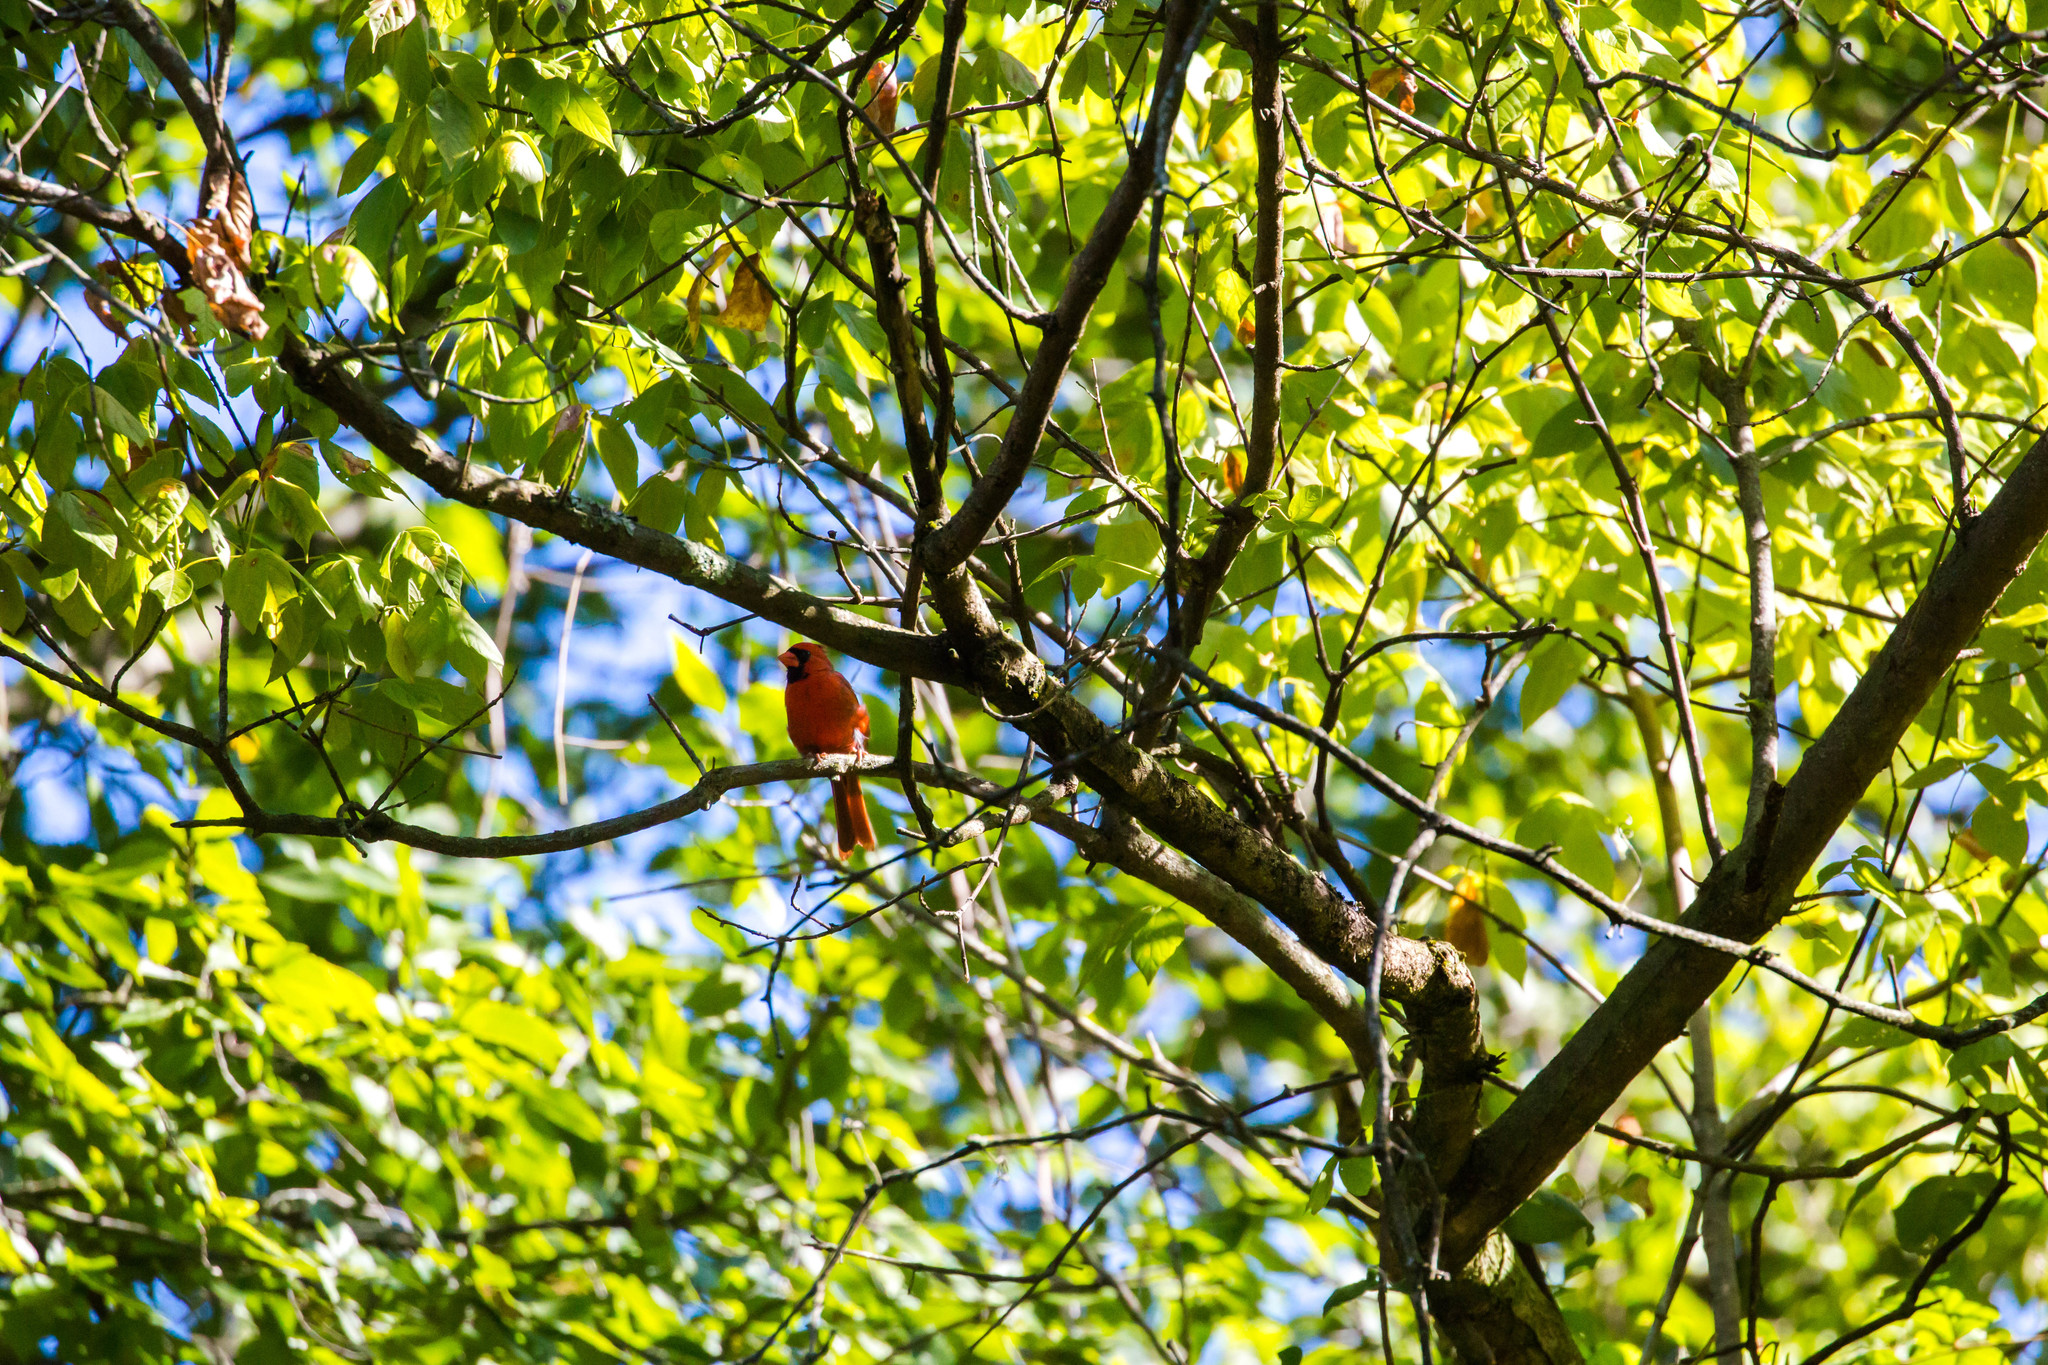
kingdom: Animalia
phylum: Chordata
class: Aves
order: Passeriformes
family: Cardinalidae
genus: Cardinalis
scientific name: Cardinalis cardinalis
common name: Northern cardinal
